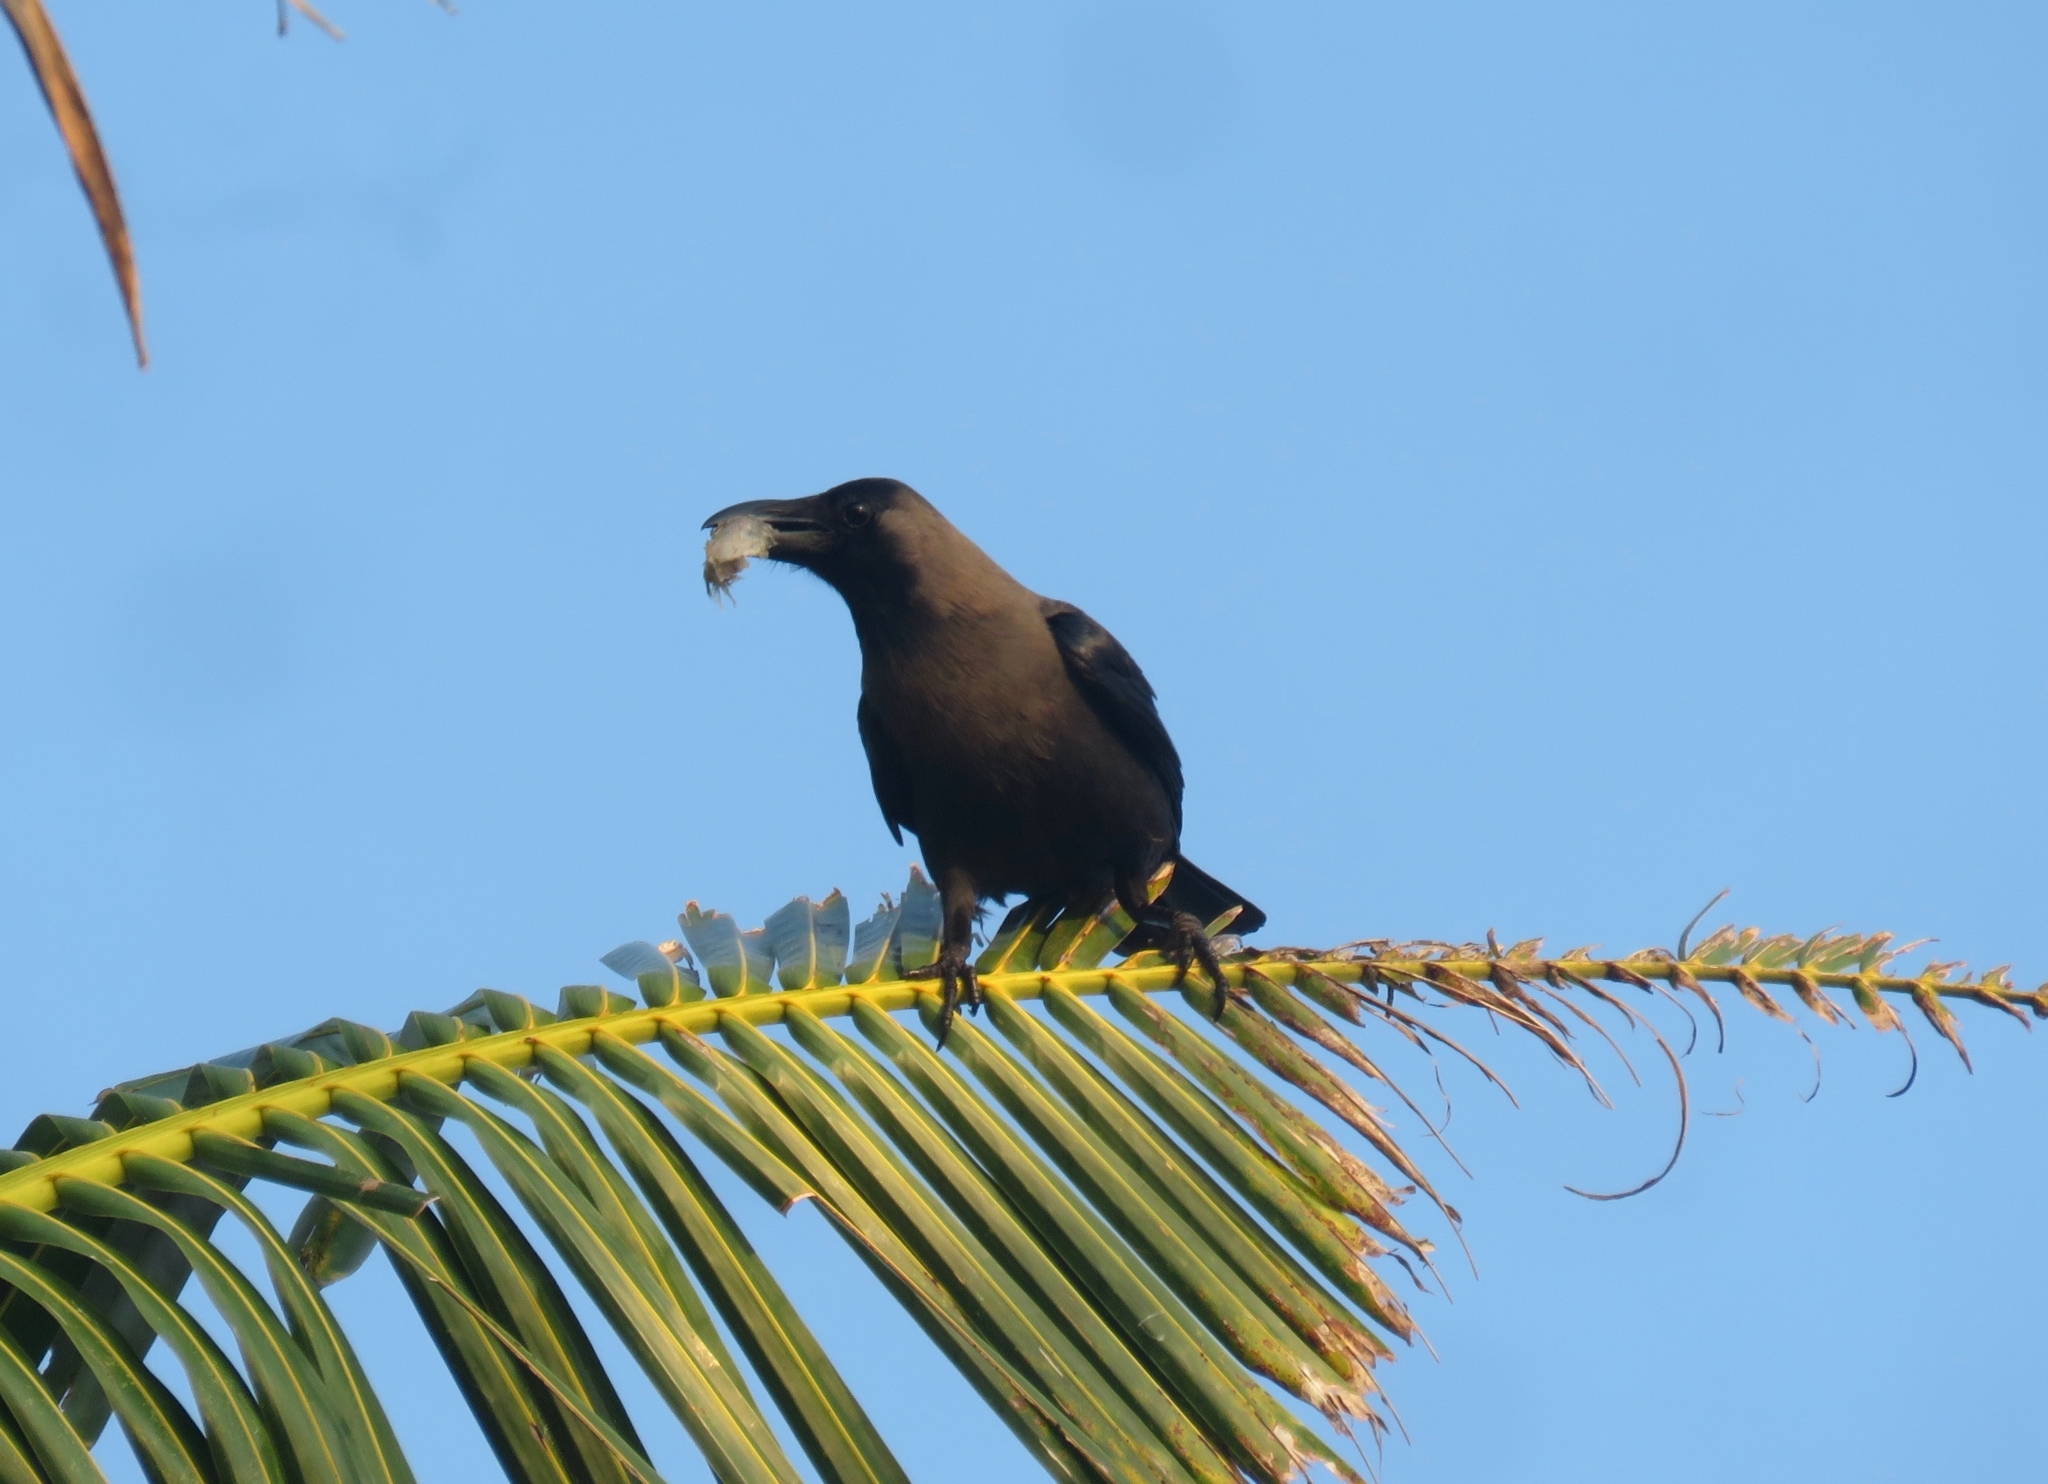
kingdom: Animalia
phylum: Chordata
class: Aves
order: Passeriformes
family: Corvidae
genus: Corvus
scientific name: Corvus splendens
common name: House crow
